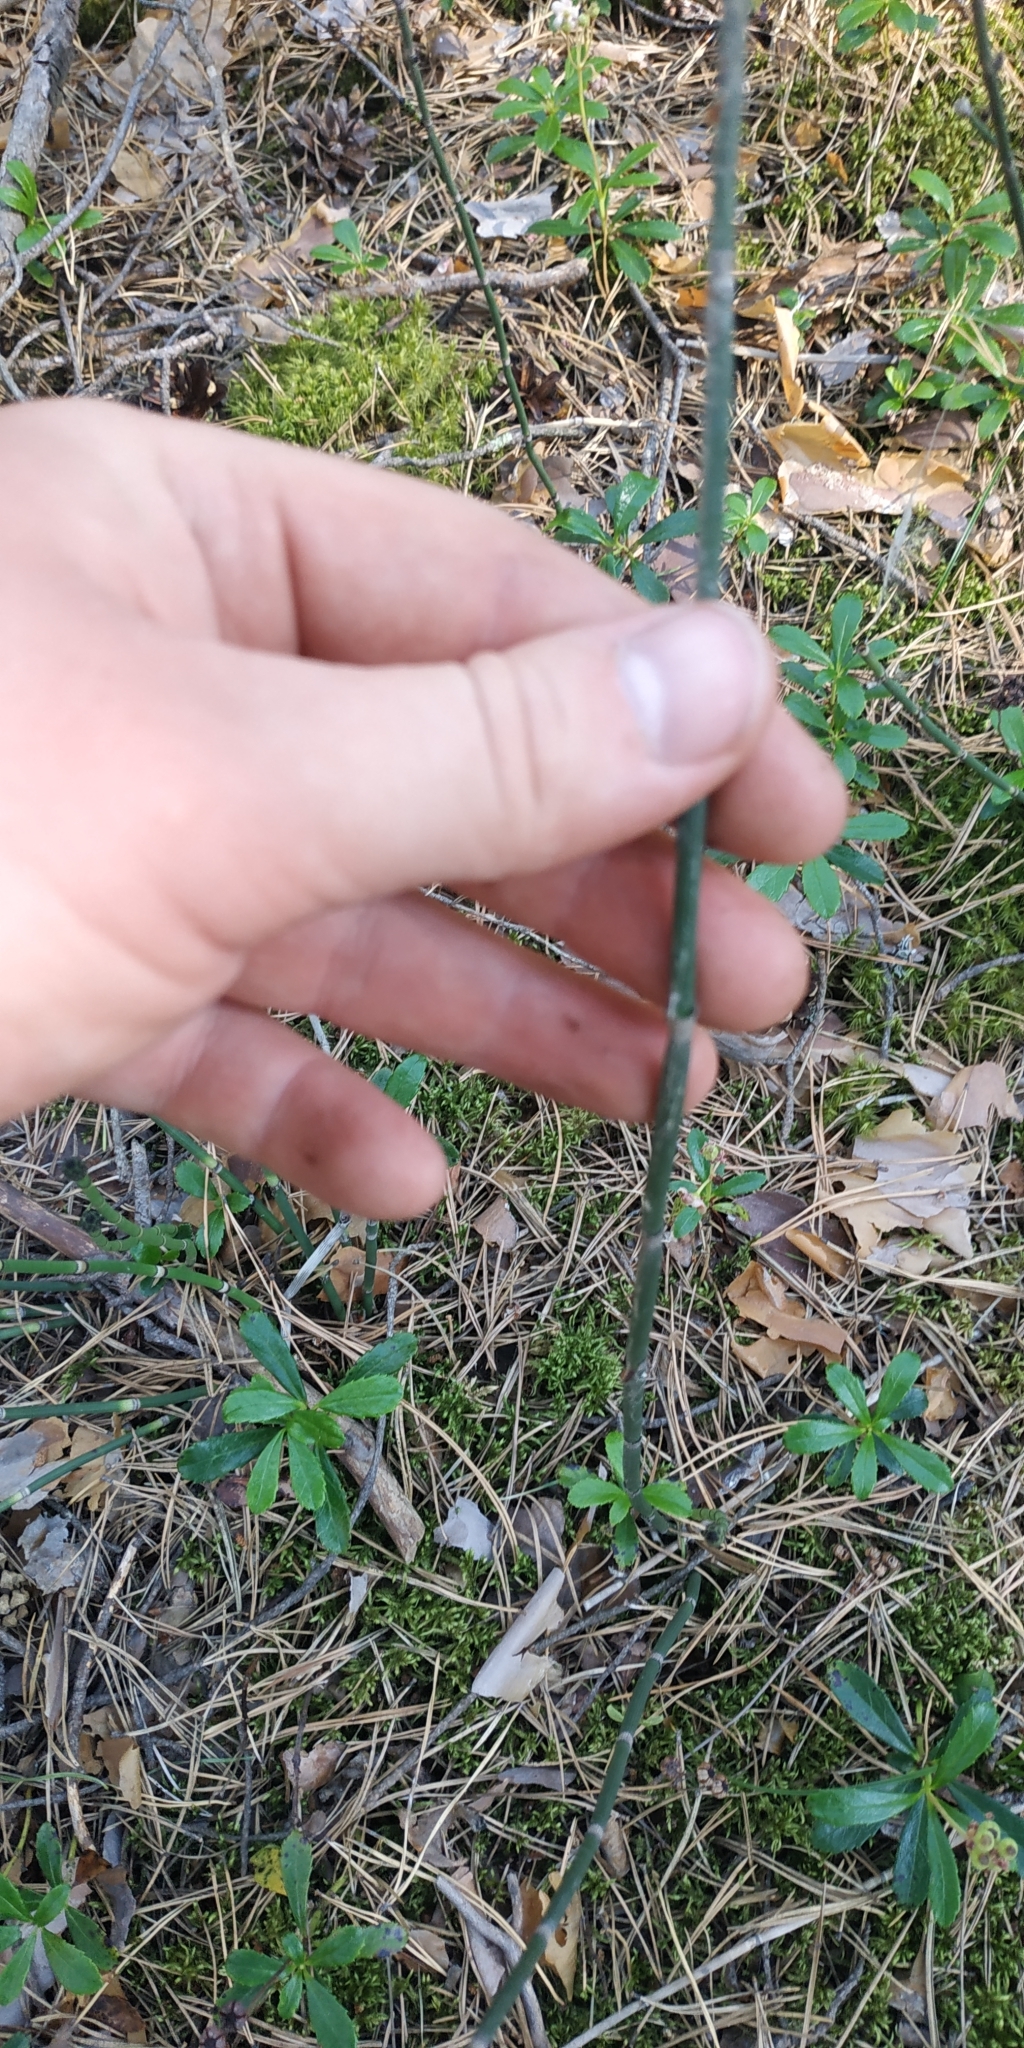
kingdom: Plantae
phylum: Tracheophyta
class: Polypodiopsida
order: Equisetales
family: Equisetaceae
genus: Equisetum
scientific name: Equisetum hyemale
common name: Rough horsetail
